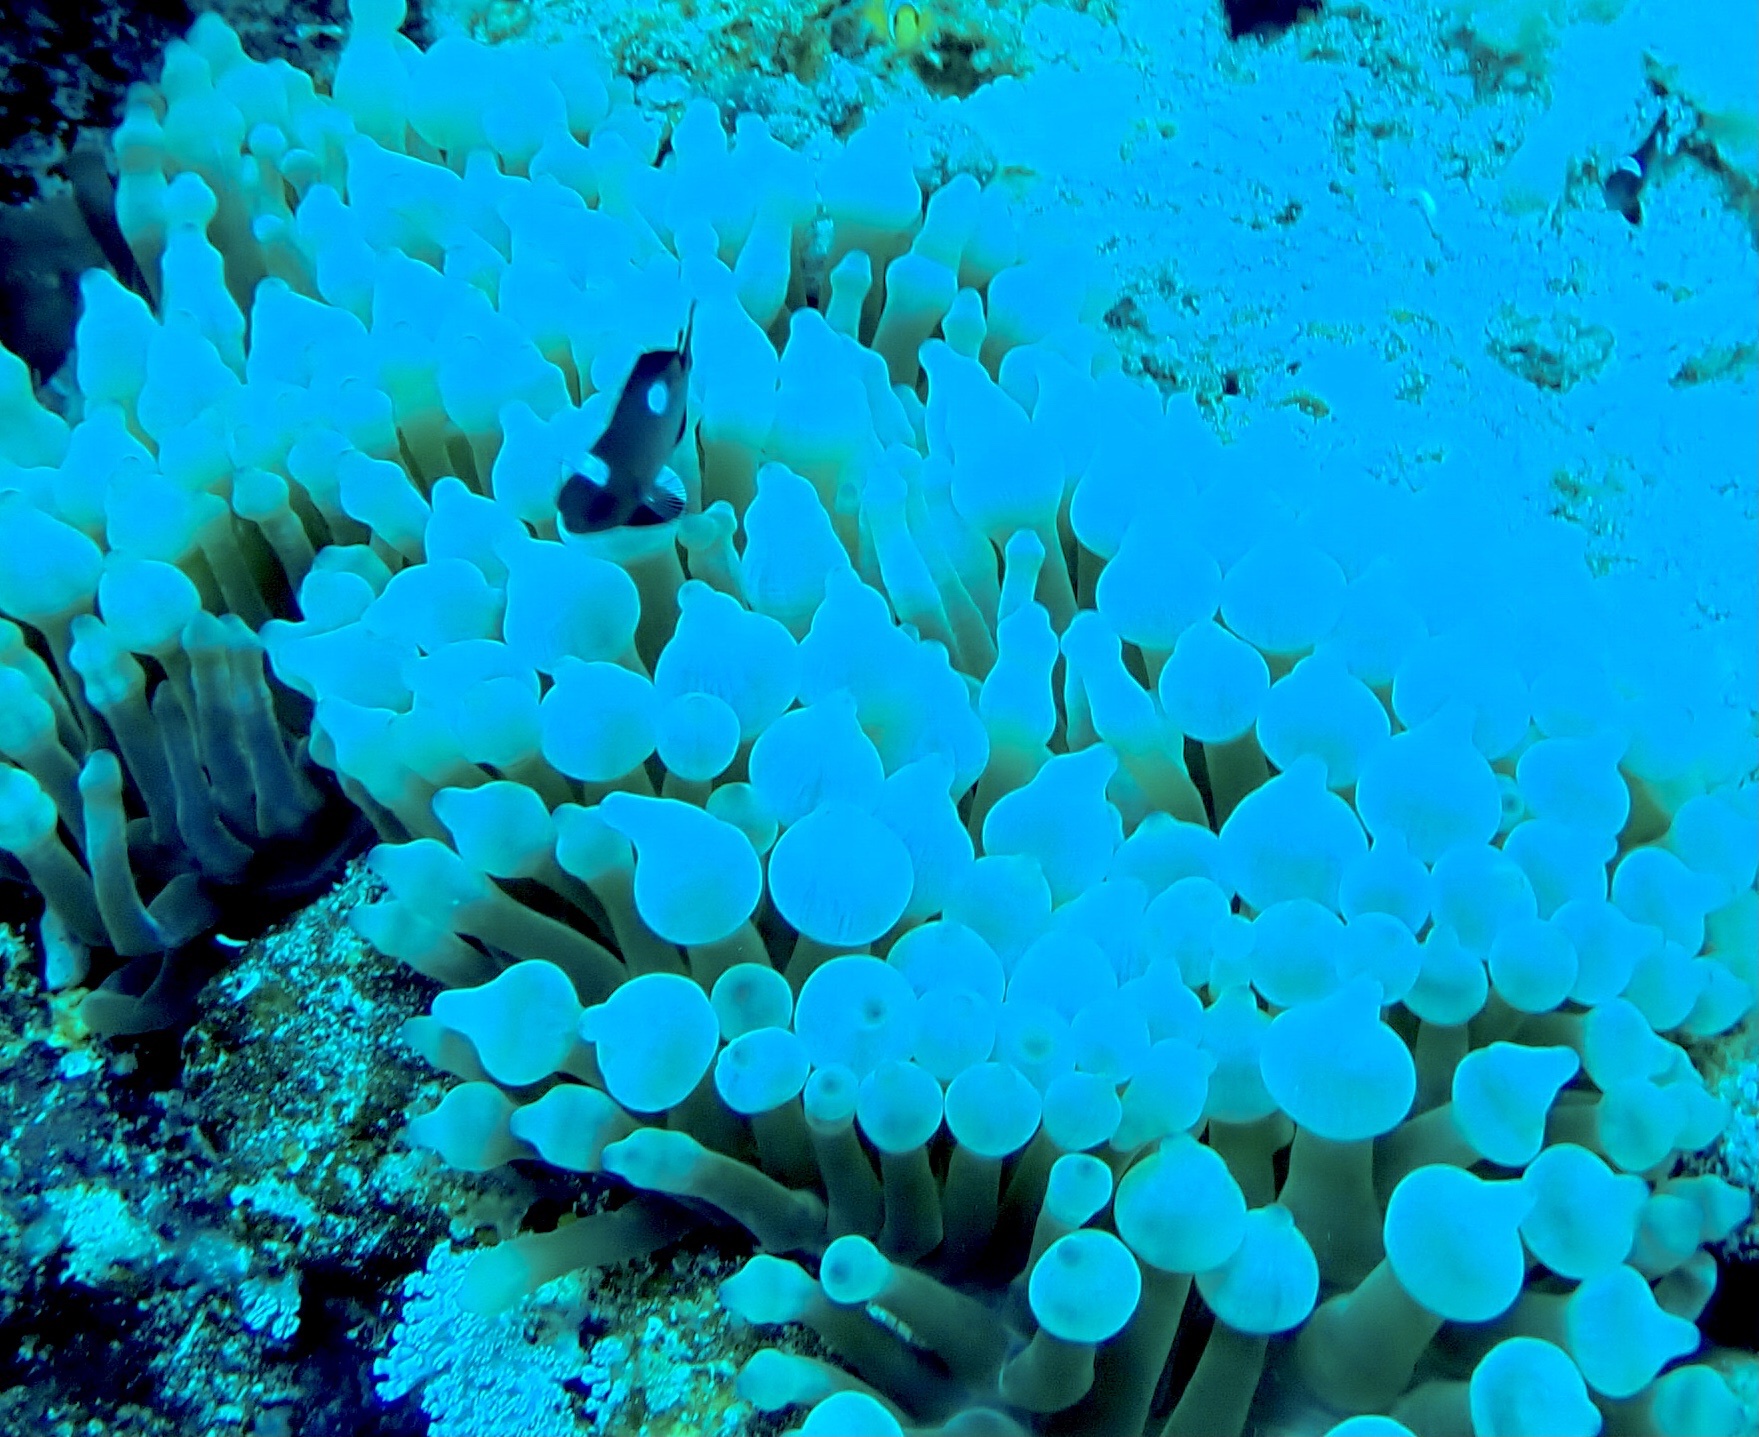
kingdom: Animalia
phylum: Cnidaria
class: Anthozoa
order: Actiniaria
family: Actiniidae
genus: Entacmaea
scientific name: Entacmaea quadricolor
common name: Bulb tentacle sea anemone
